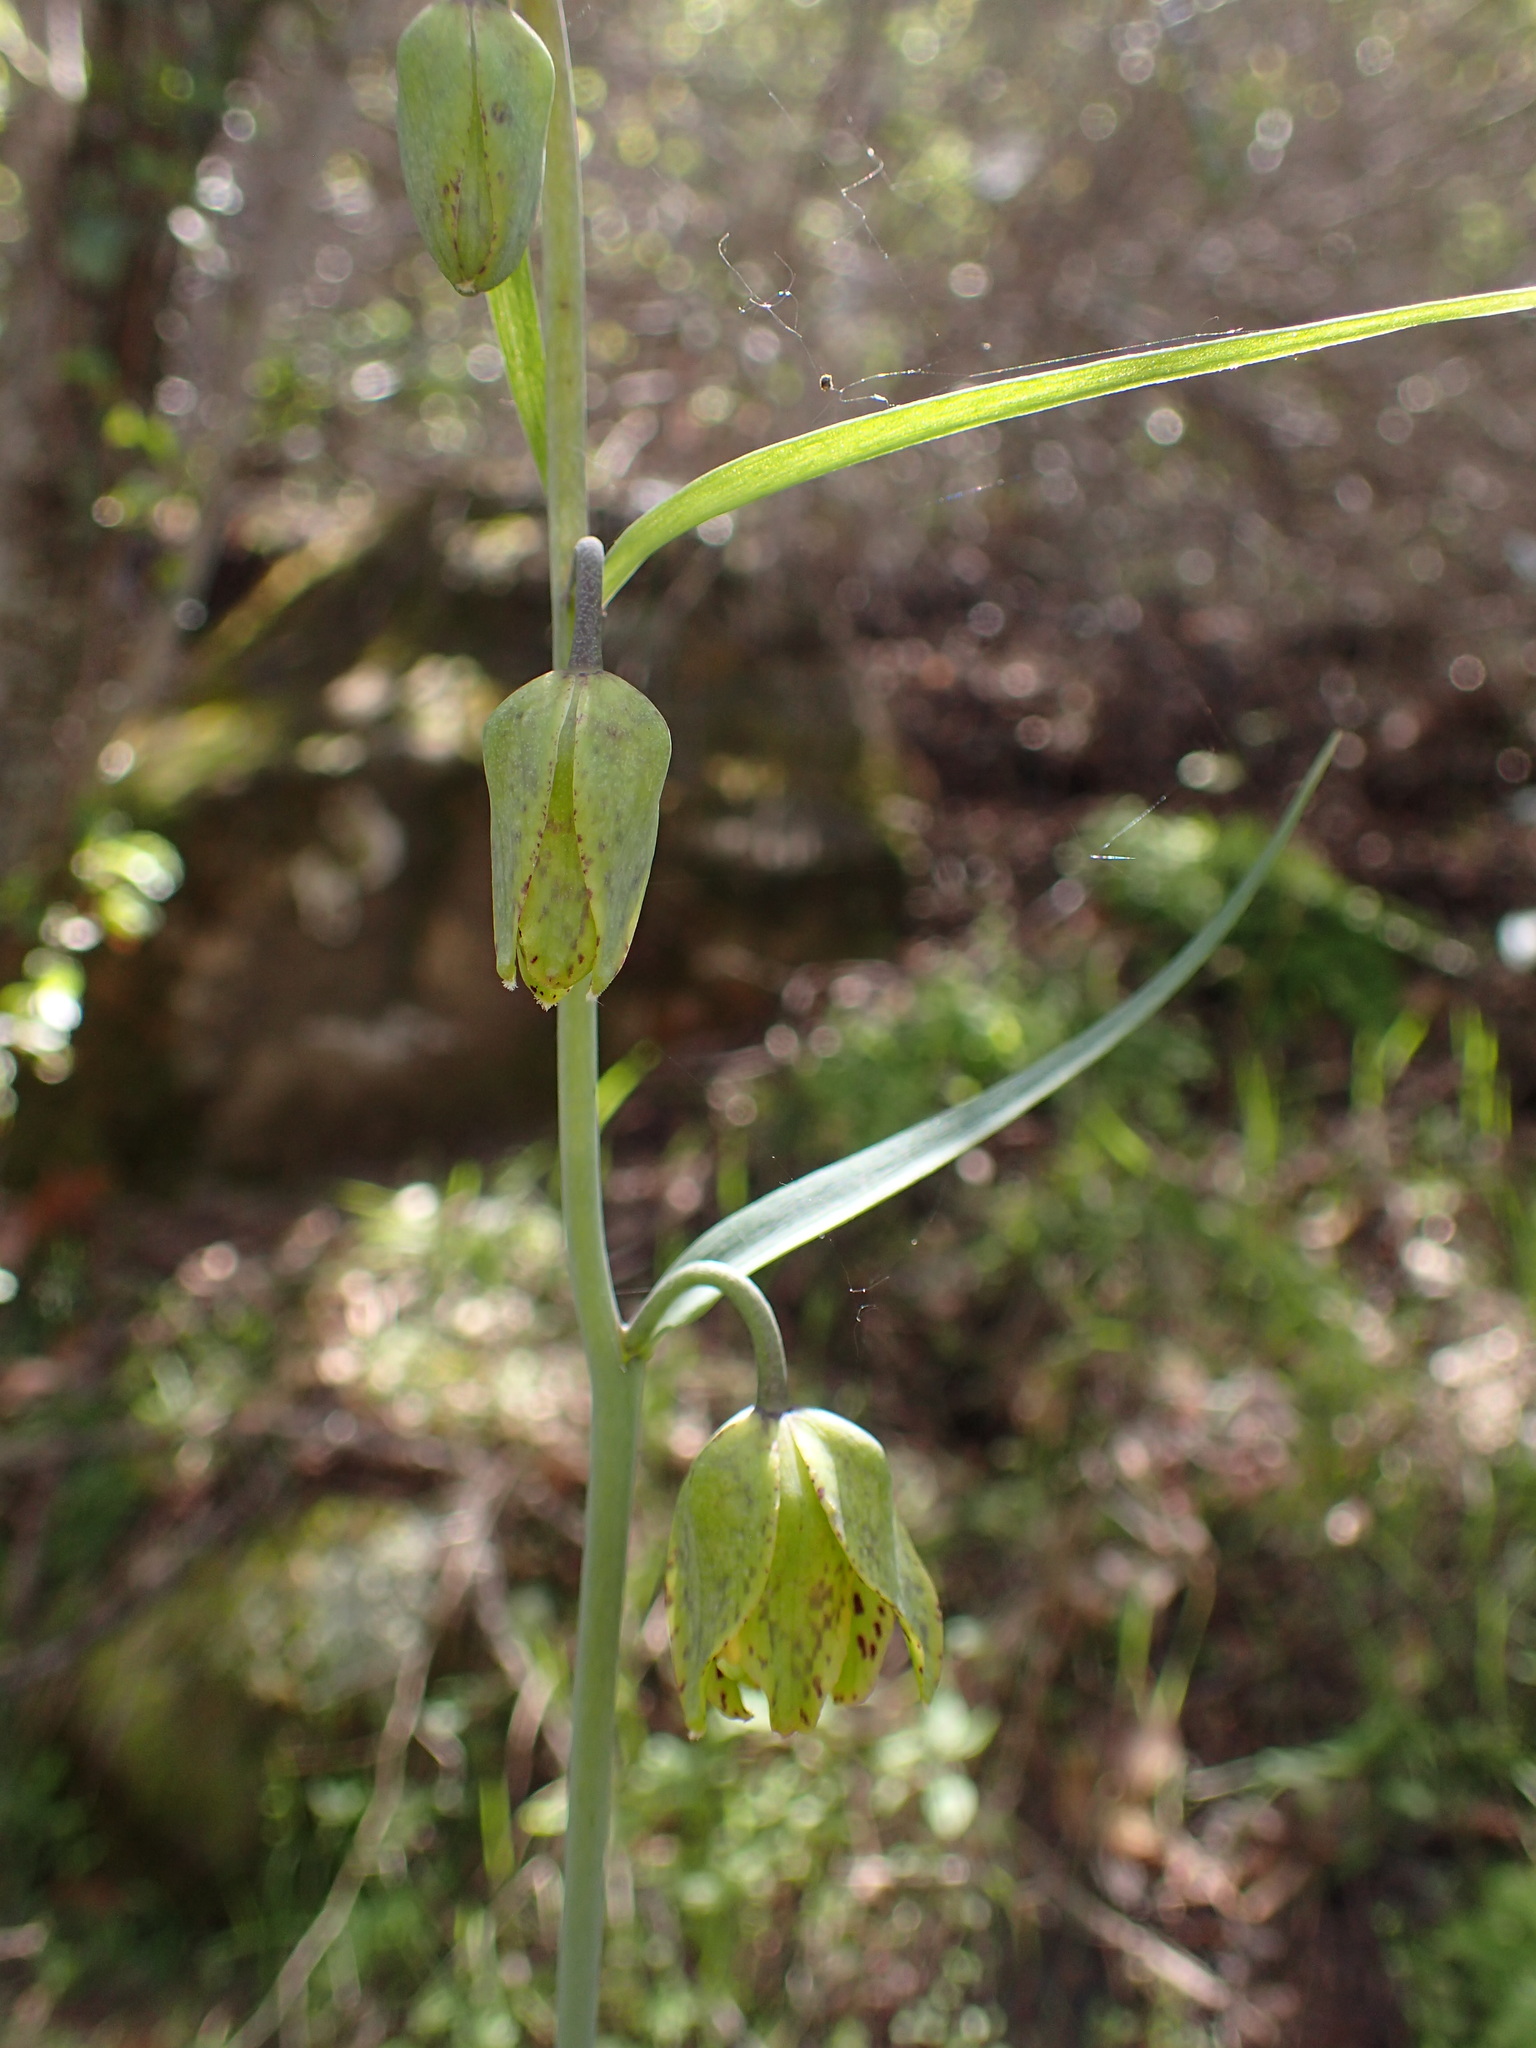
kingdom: Plantae
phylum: Tracheophyta
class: Liliopsida
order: Liliales
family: Liliaceae
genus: Fritillaria
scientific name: Fritillaria ojaiensis
